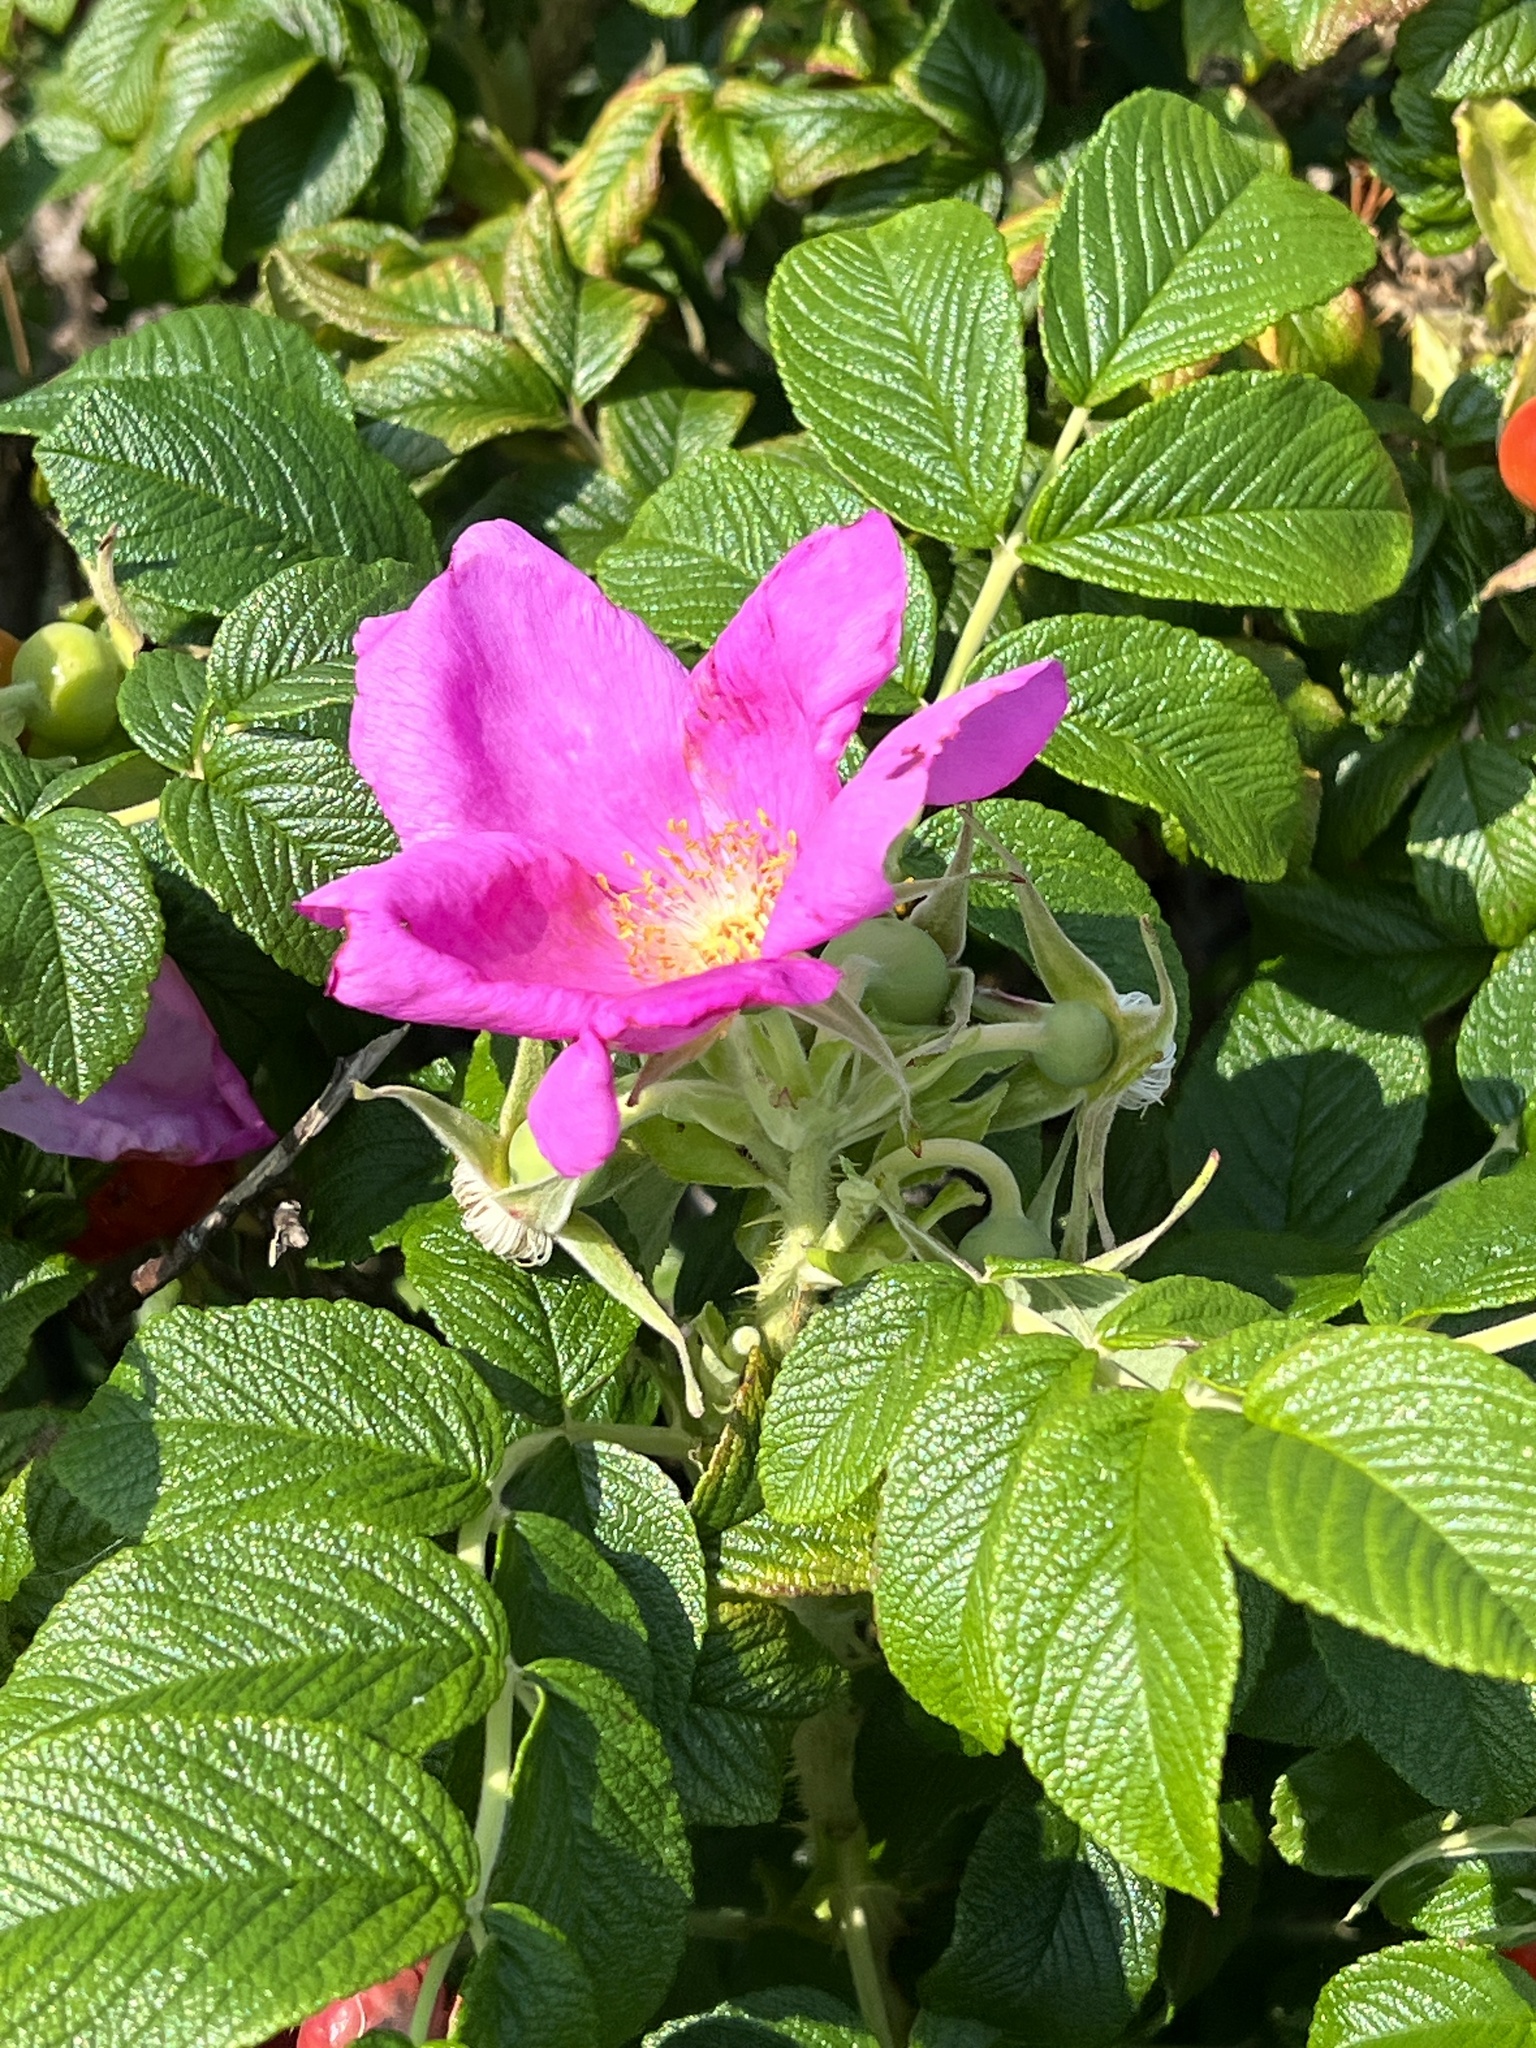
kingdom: Plantae
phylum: Tracheophyta
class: Magnoliopsida
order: Rosales
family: Rosaceae
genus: Rosa
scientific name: Rosa rugosa
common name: Japanese rose
